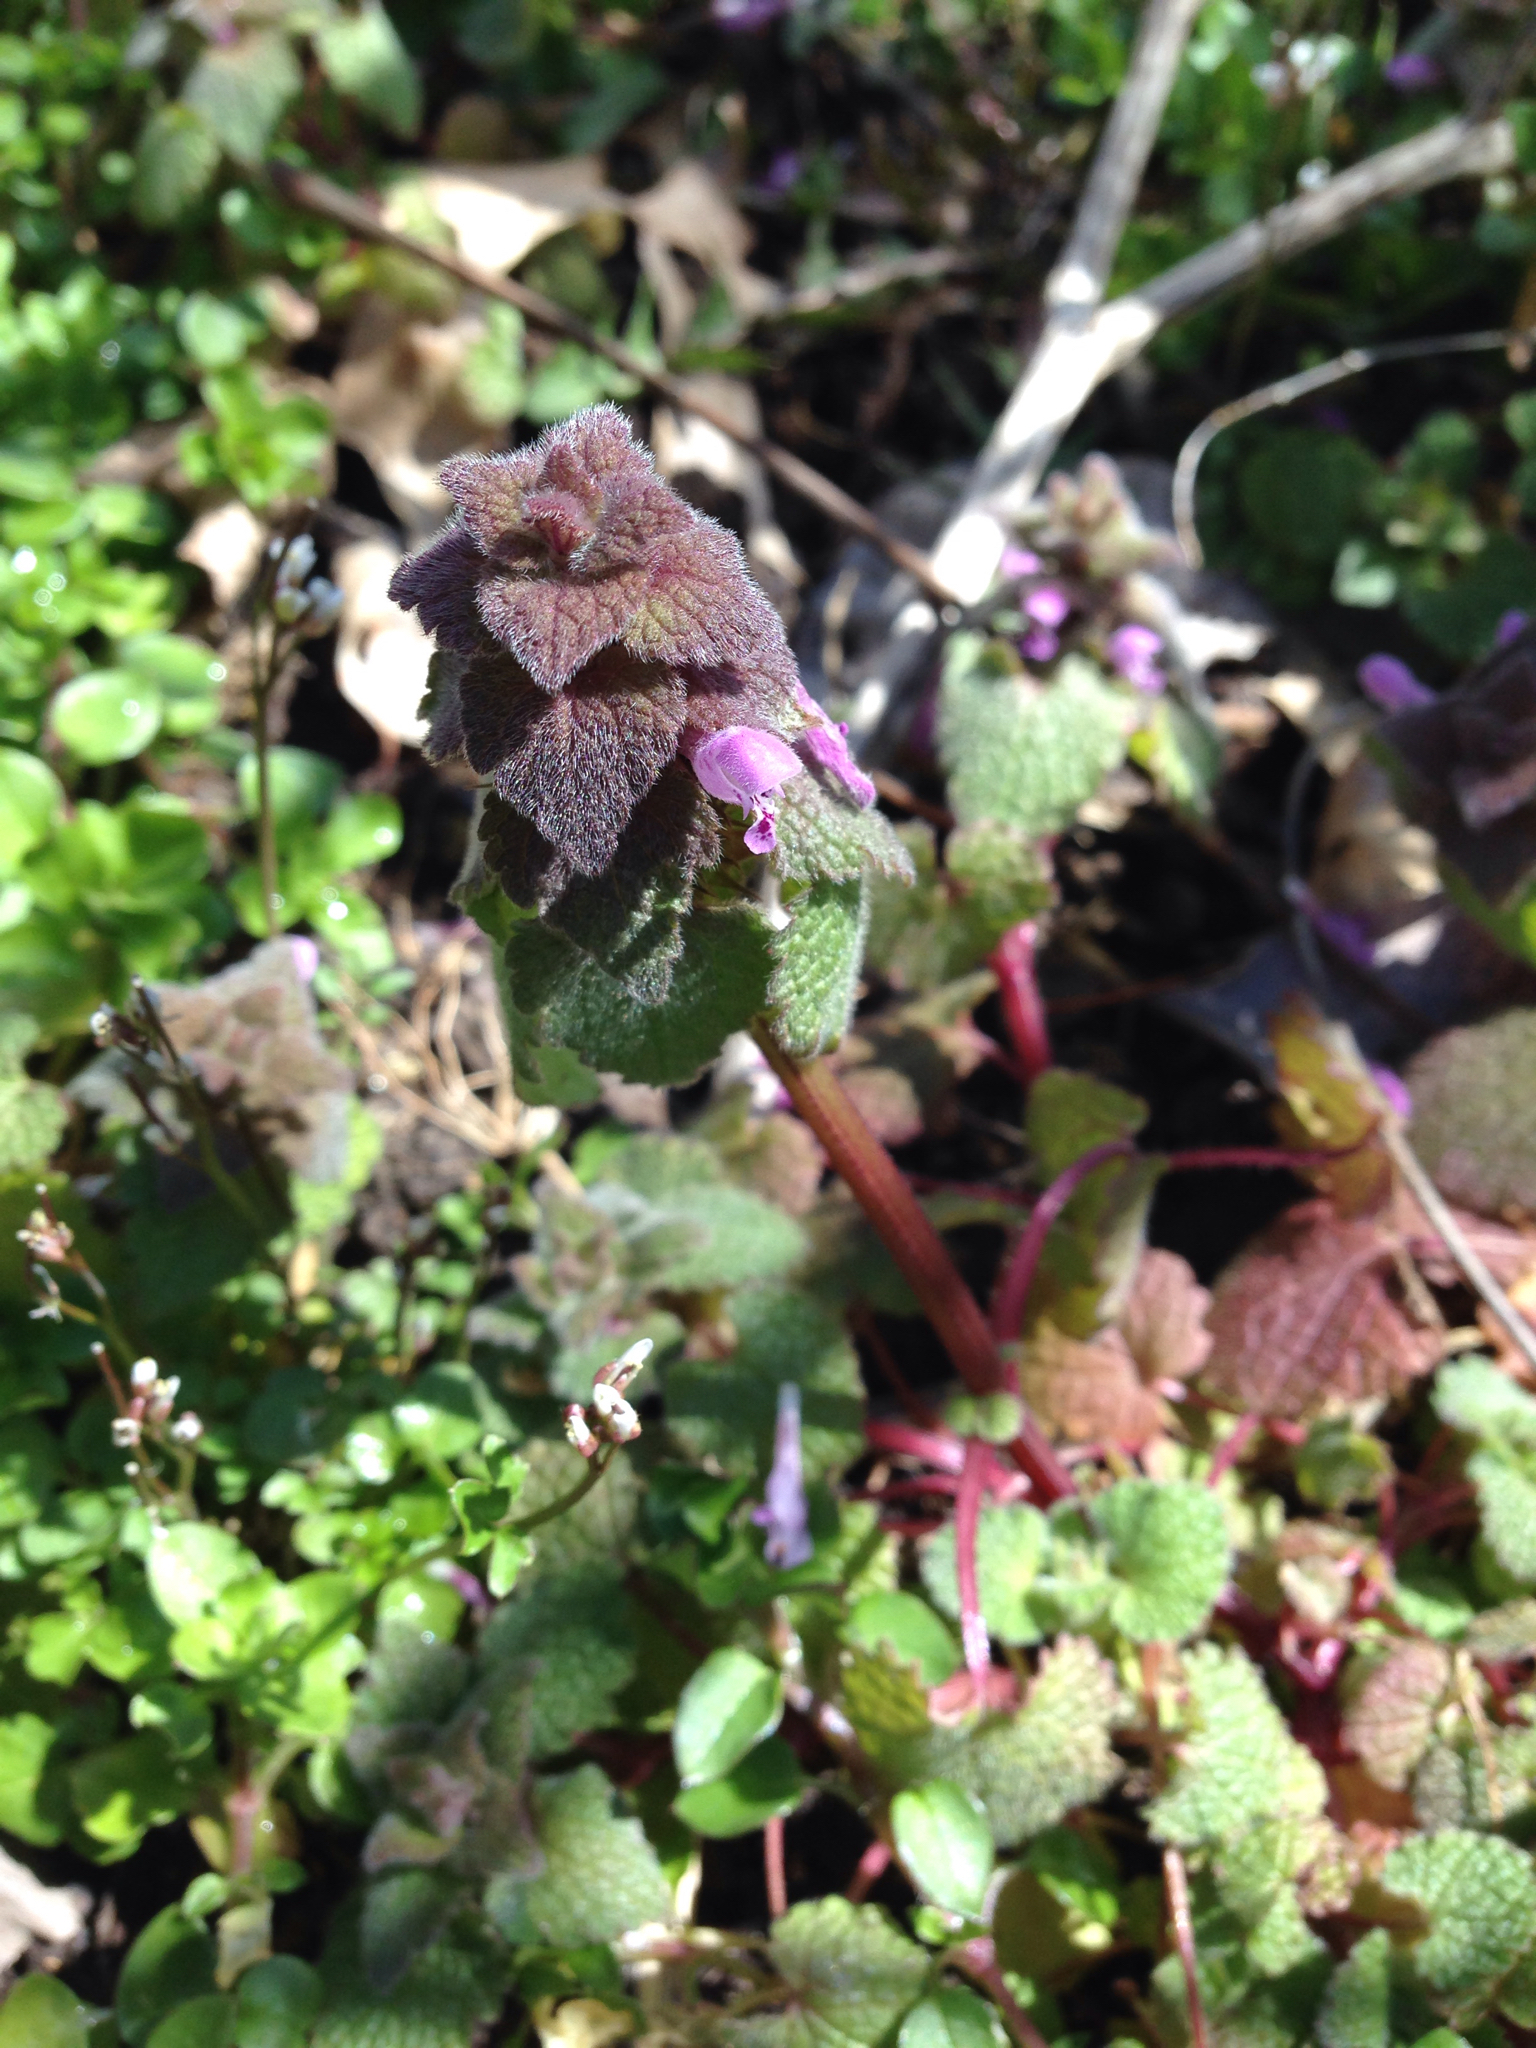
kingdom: Plantae
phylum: Tracheophyta
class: Magnoliopsida
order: Lamiales
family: Lamiaceae
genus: Lamium
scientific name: Lamium purpureum
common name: Red dead-nettle
